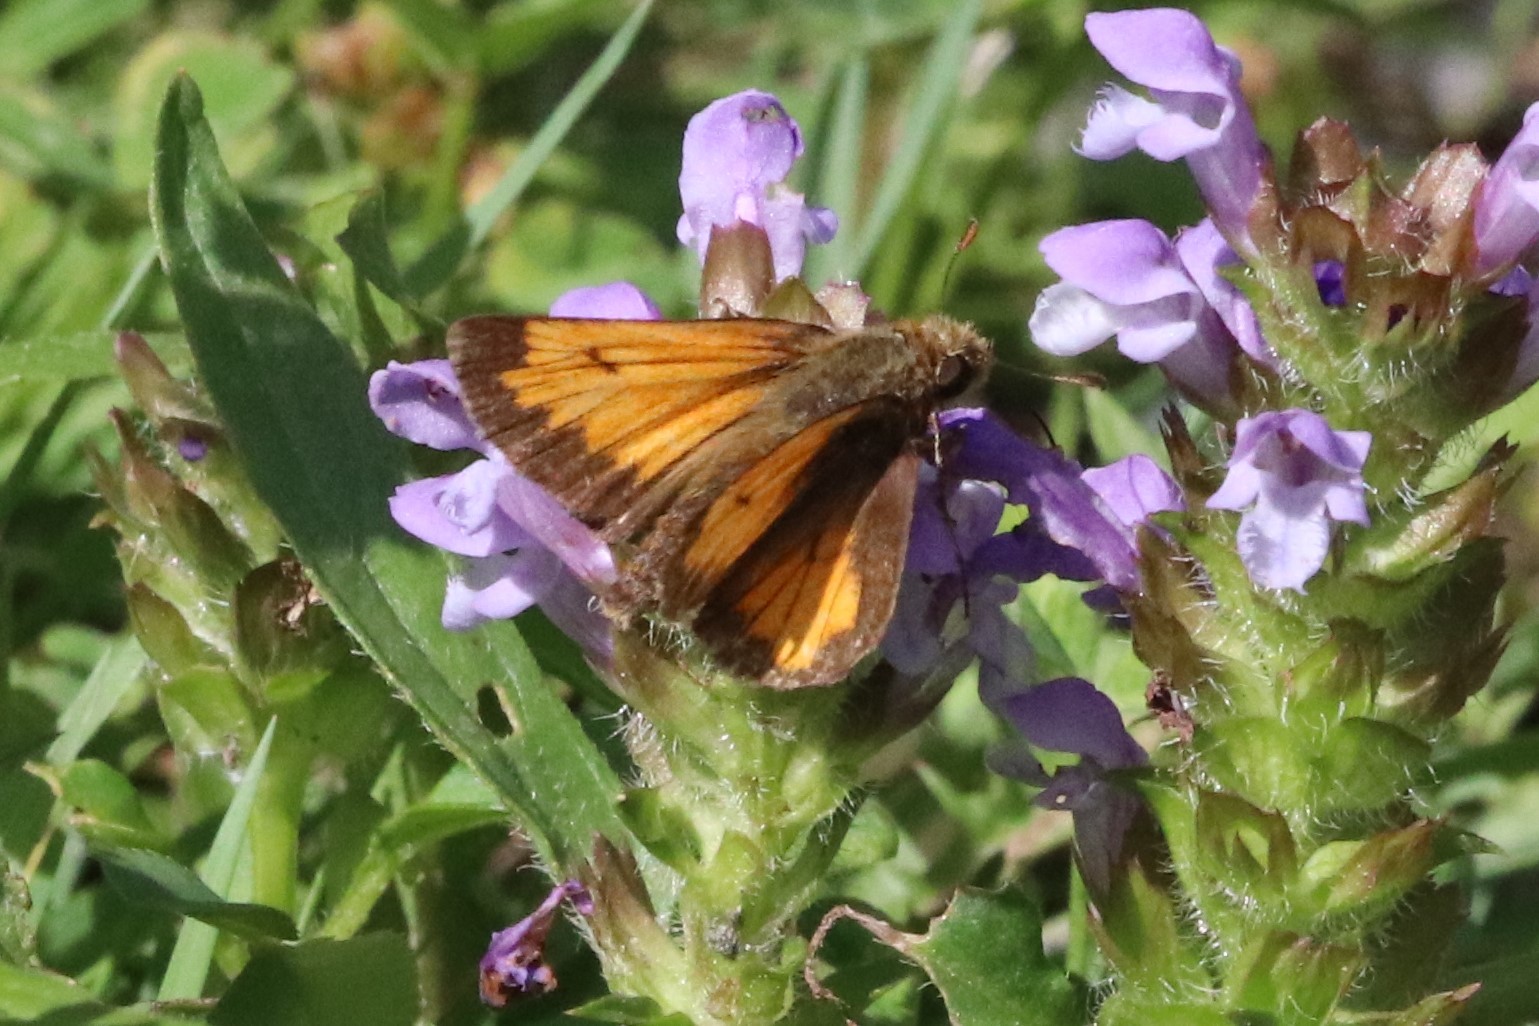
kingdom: Animalia
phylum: Arthropoda
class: Insecta
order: Lepidoptera
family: Hesperiidae
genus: Lon
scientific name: Lon hobomok
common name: Hobomok skipper
